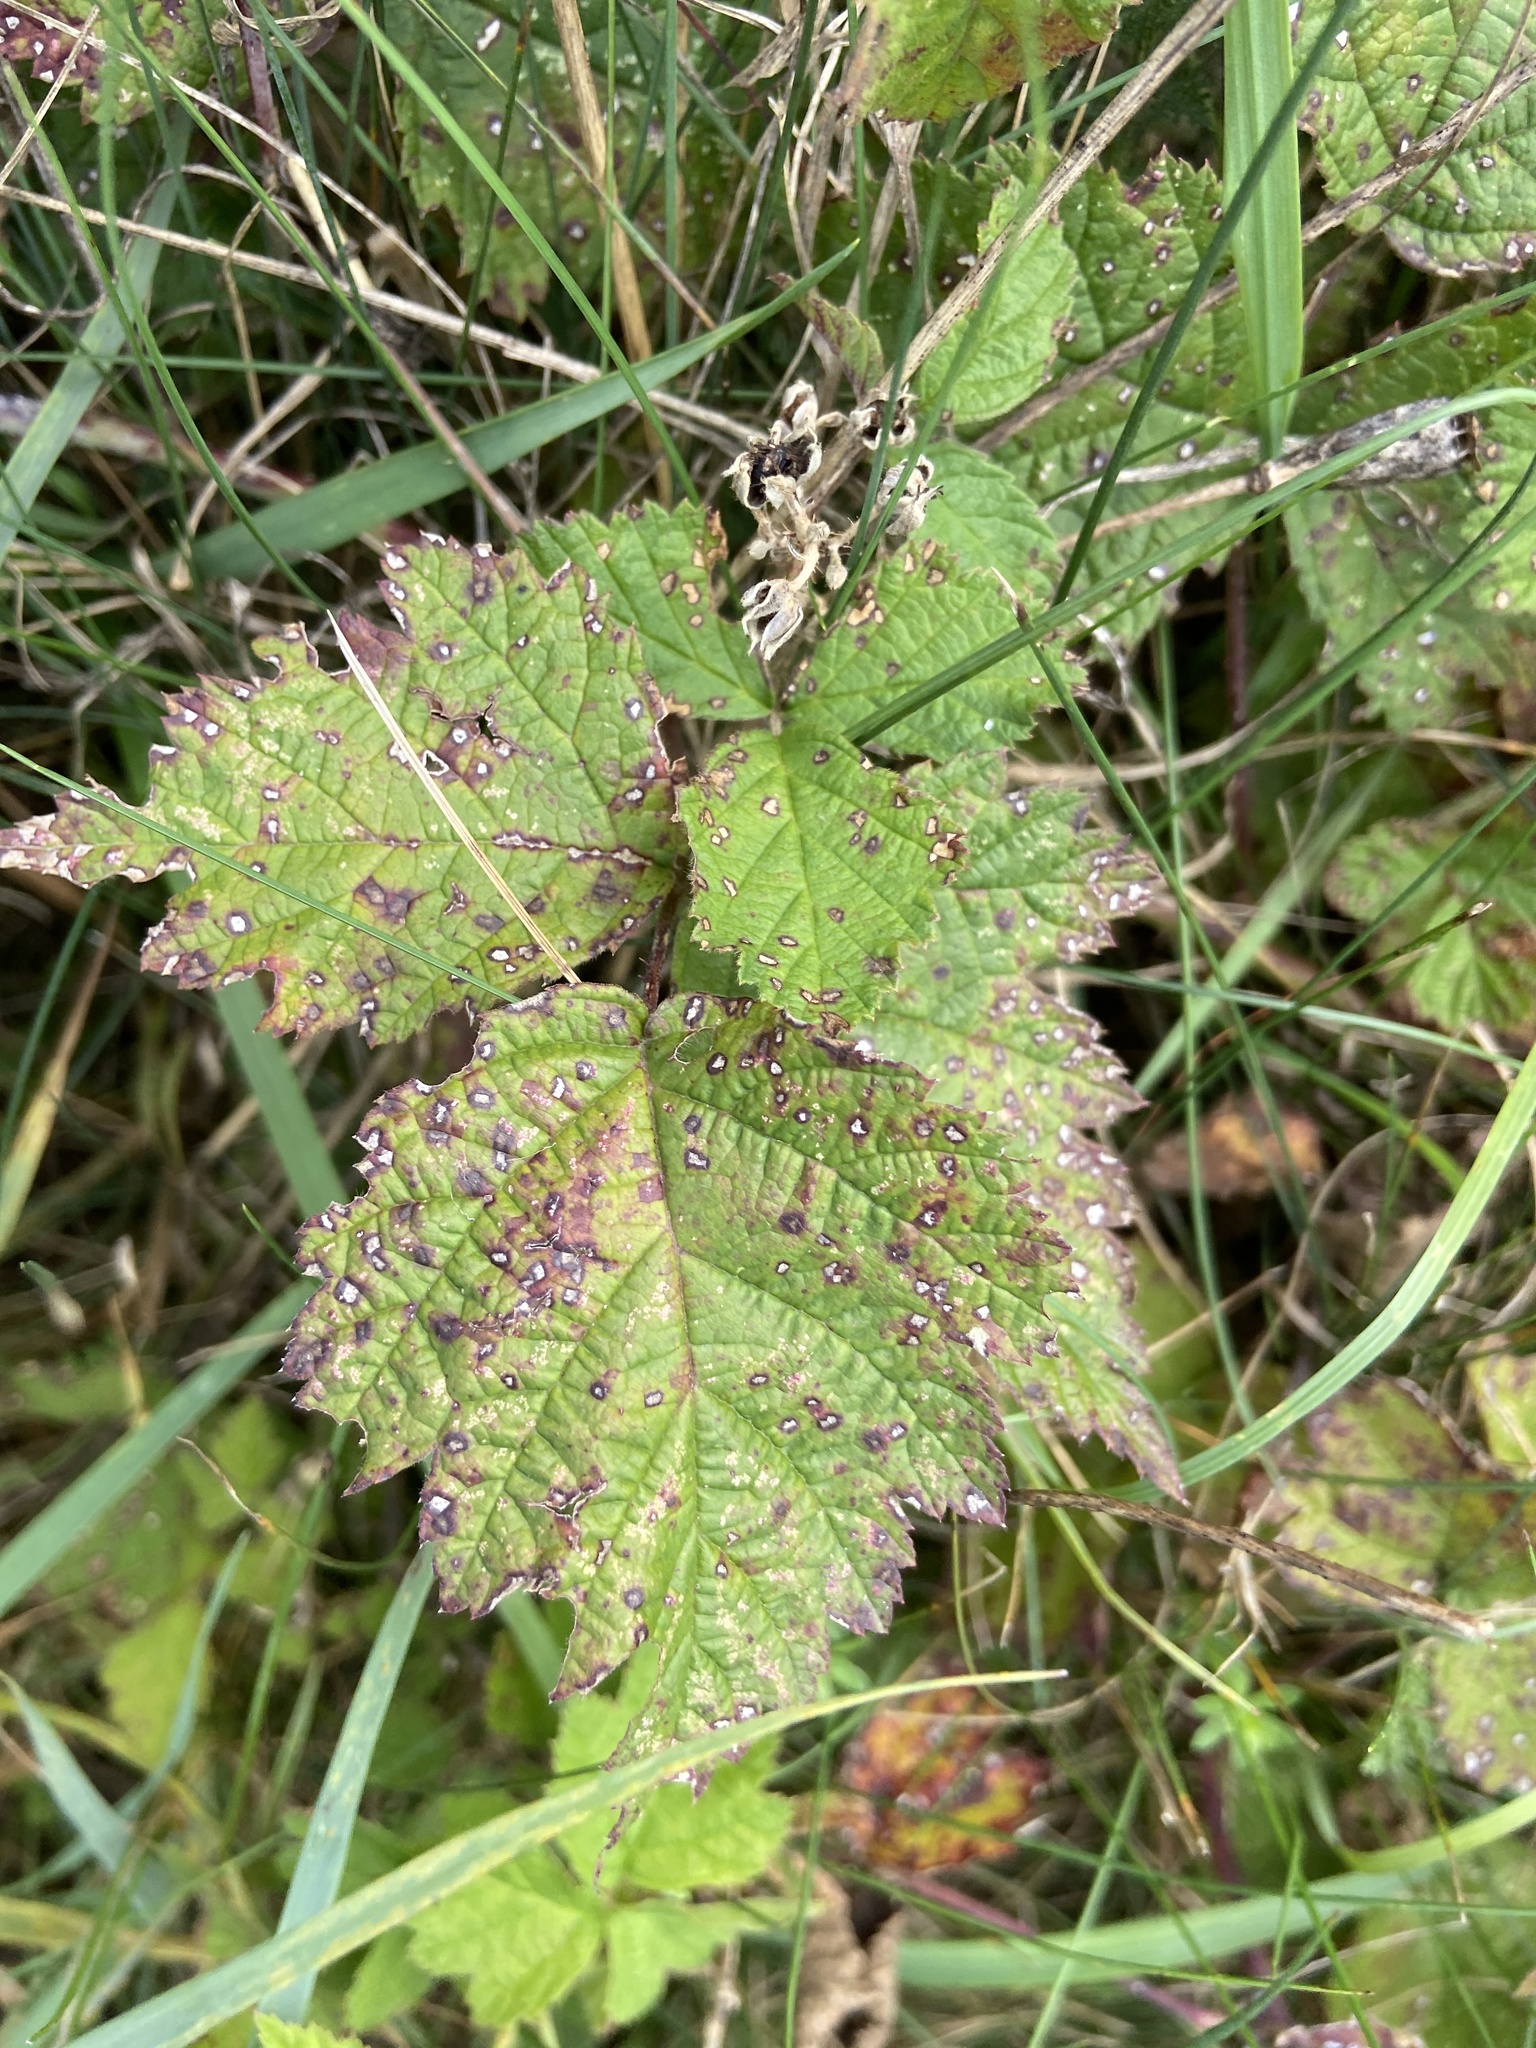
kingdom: Plantae
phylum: Tracheophyta
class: Magnoliopsida
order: Rosales
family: Rosaceae
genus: Rubus
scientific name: Rubus caesius
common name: Dewberry
